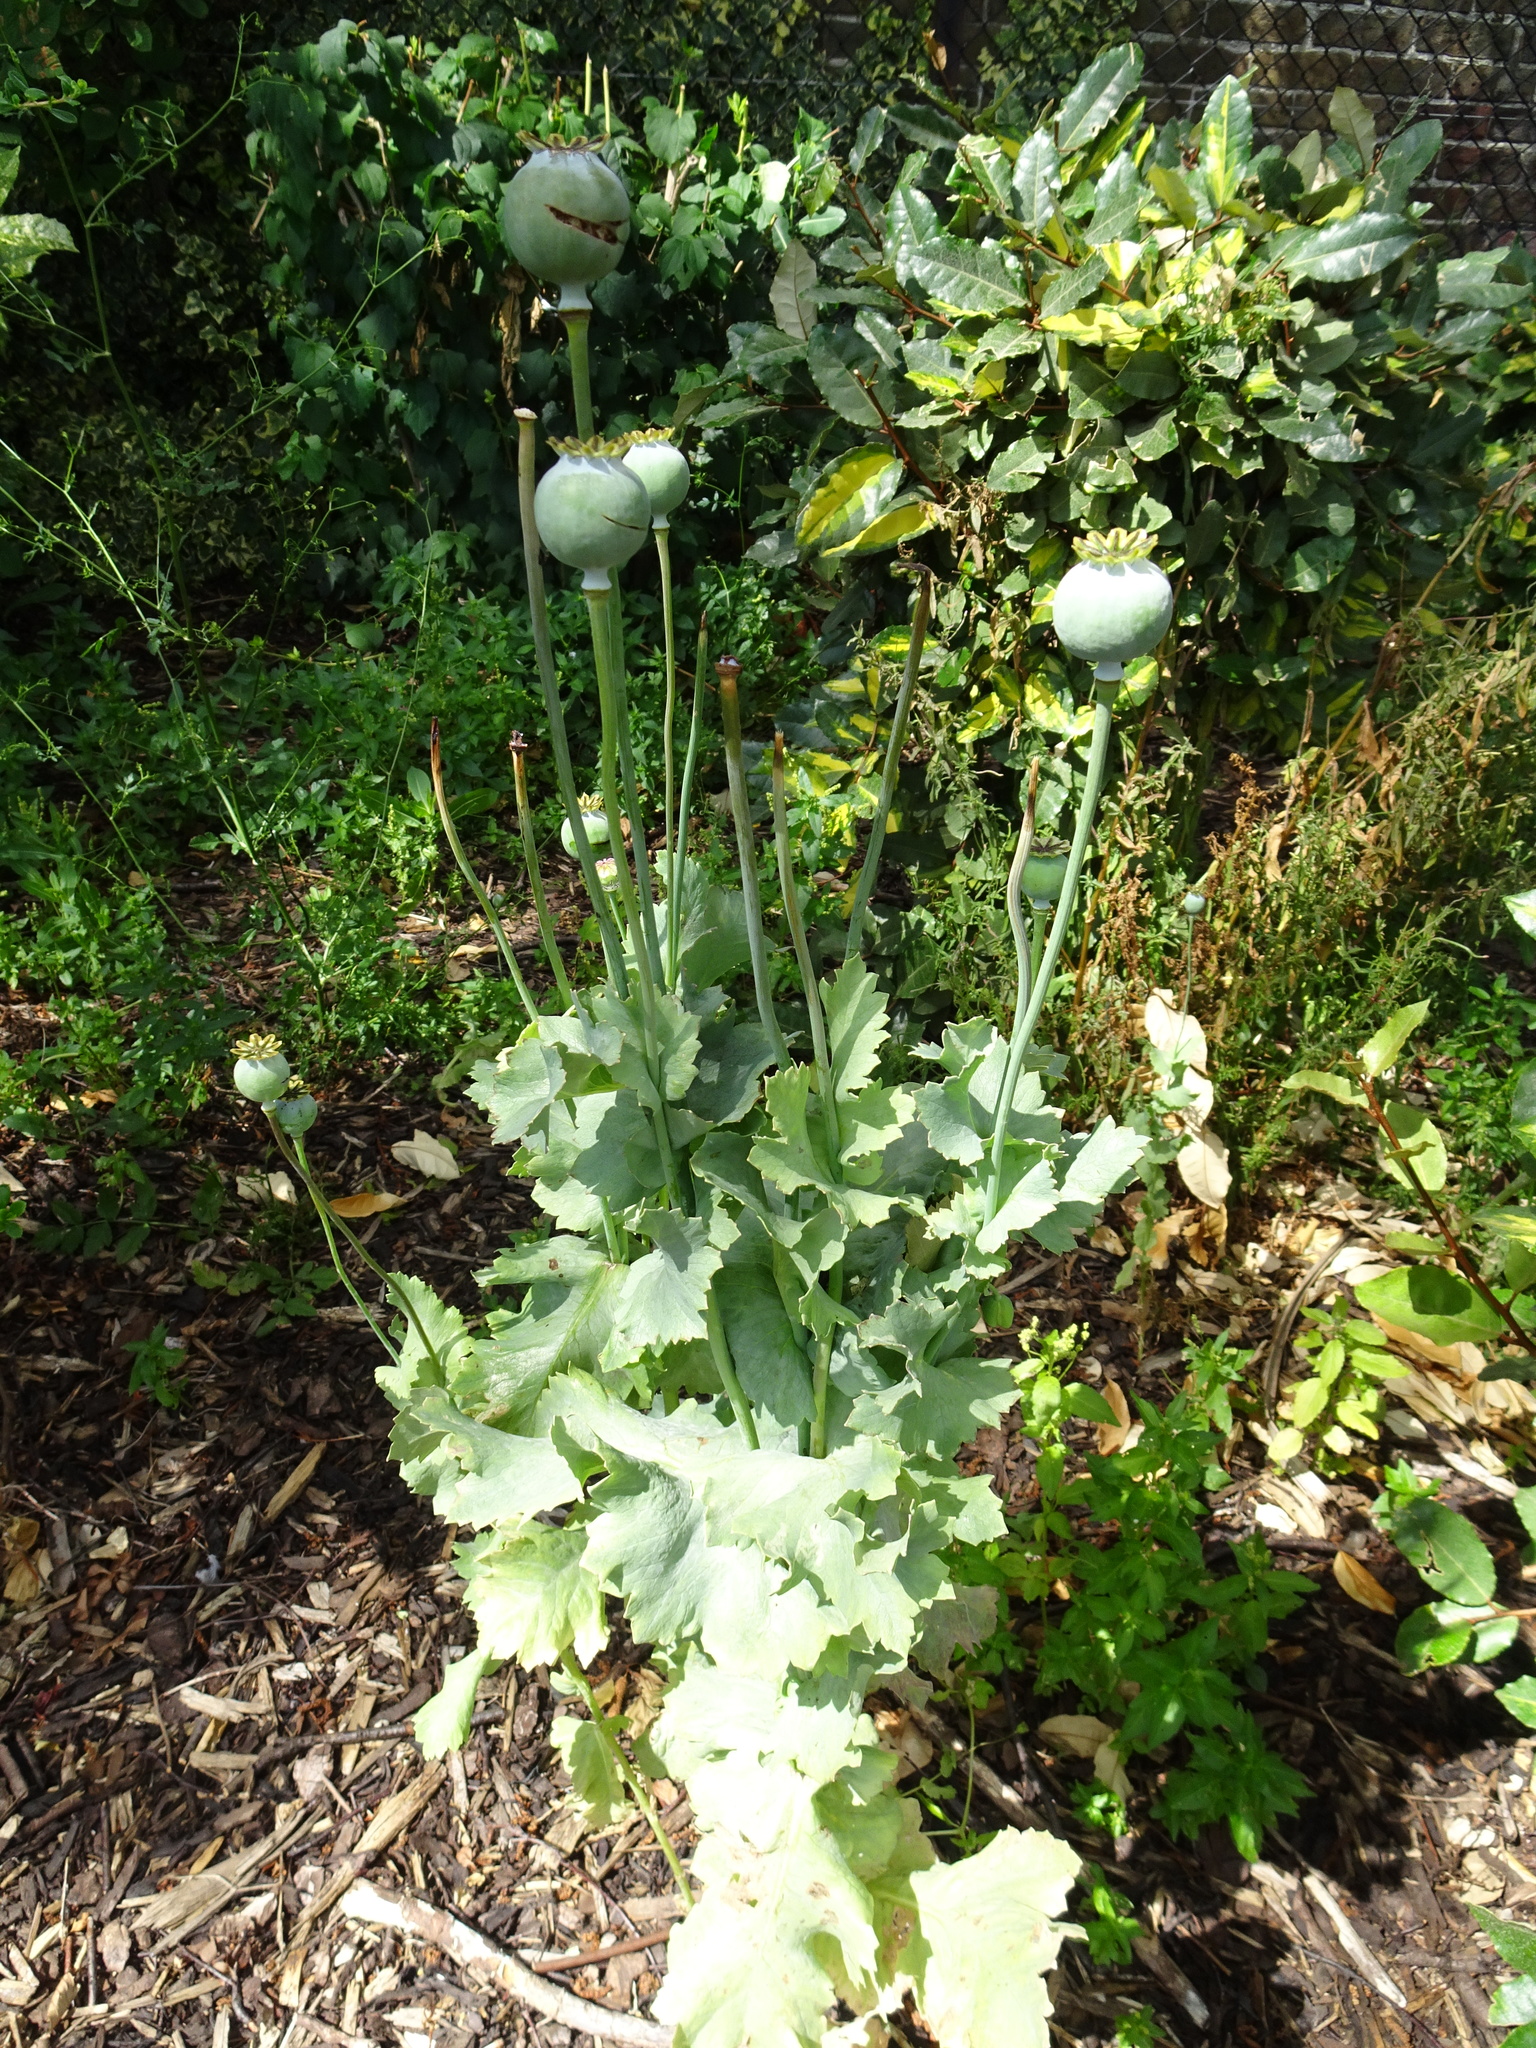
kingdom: Plantae
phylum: Tracheophyta
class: Magnoliopsida
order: Ranunculales
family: Papaveraceae
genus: Papaver
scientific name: Papaver somniferum
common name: Opium poppy
